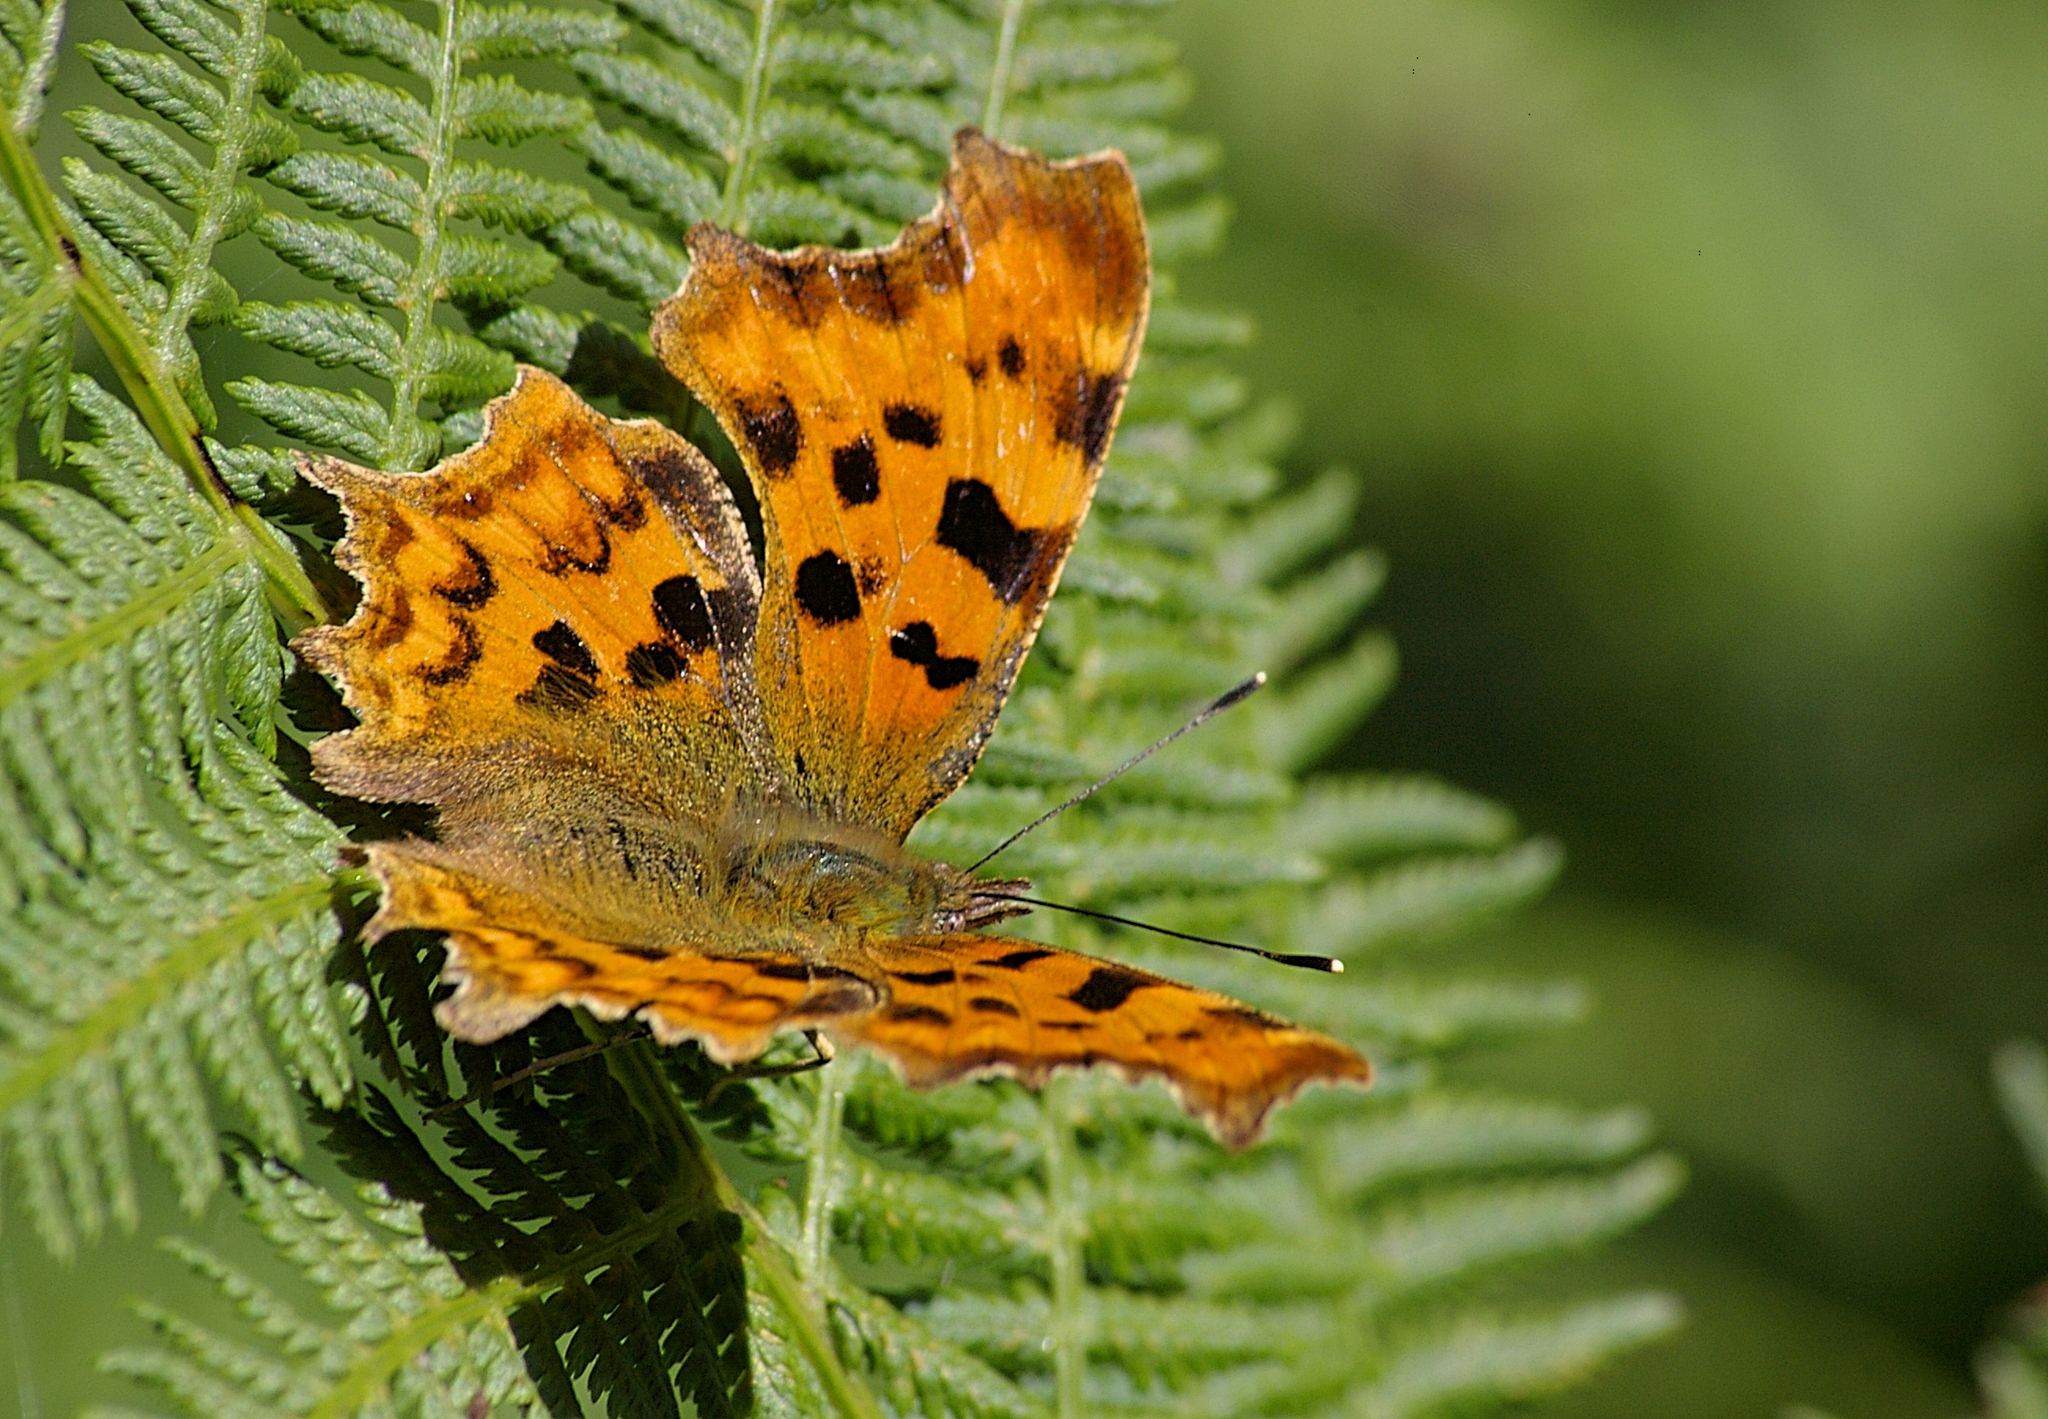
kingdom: Animalia
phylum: Arthropoda
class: Insecta
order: Lepidoptera
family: Nymphalidae
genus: Polygonia
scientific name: Polygonia c-album
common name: Comma
